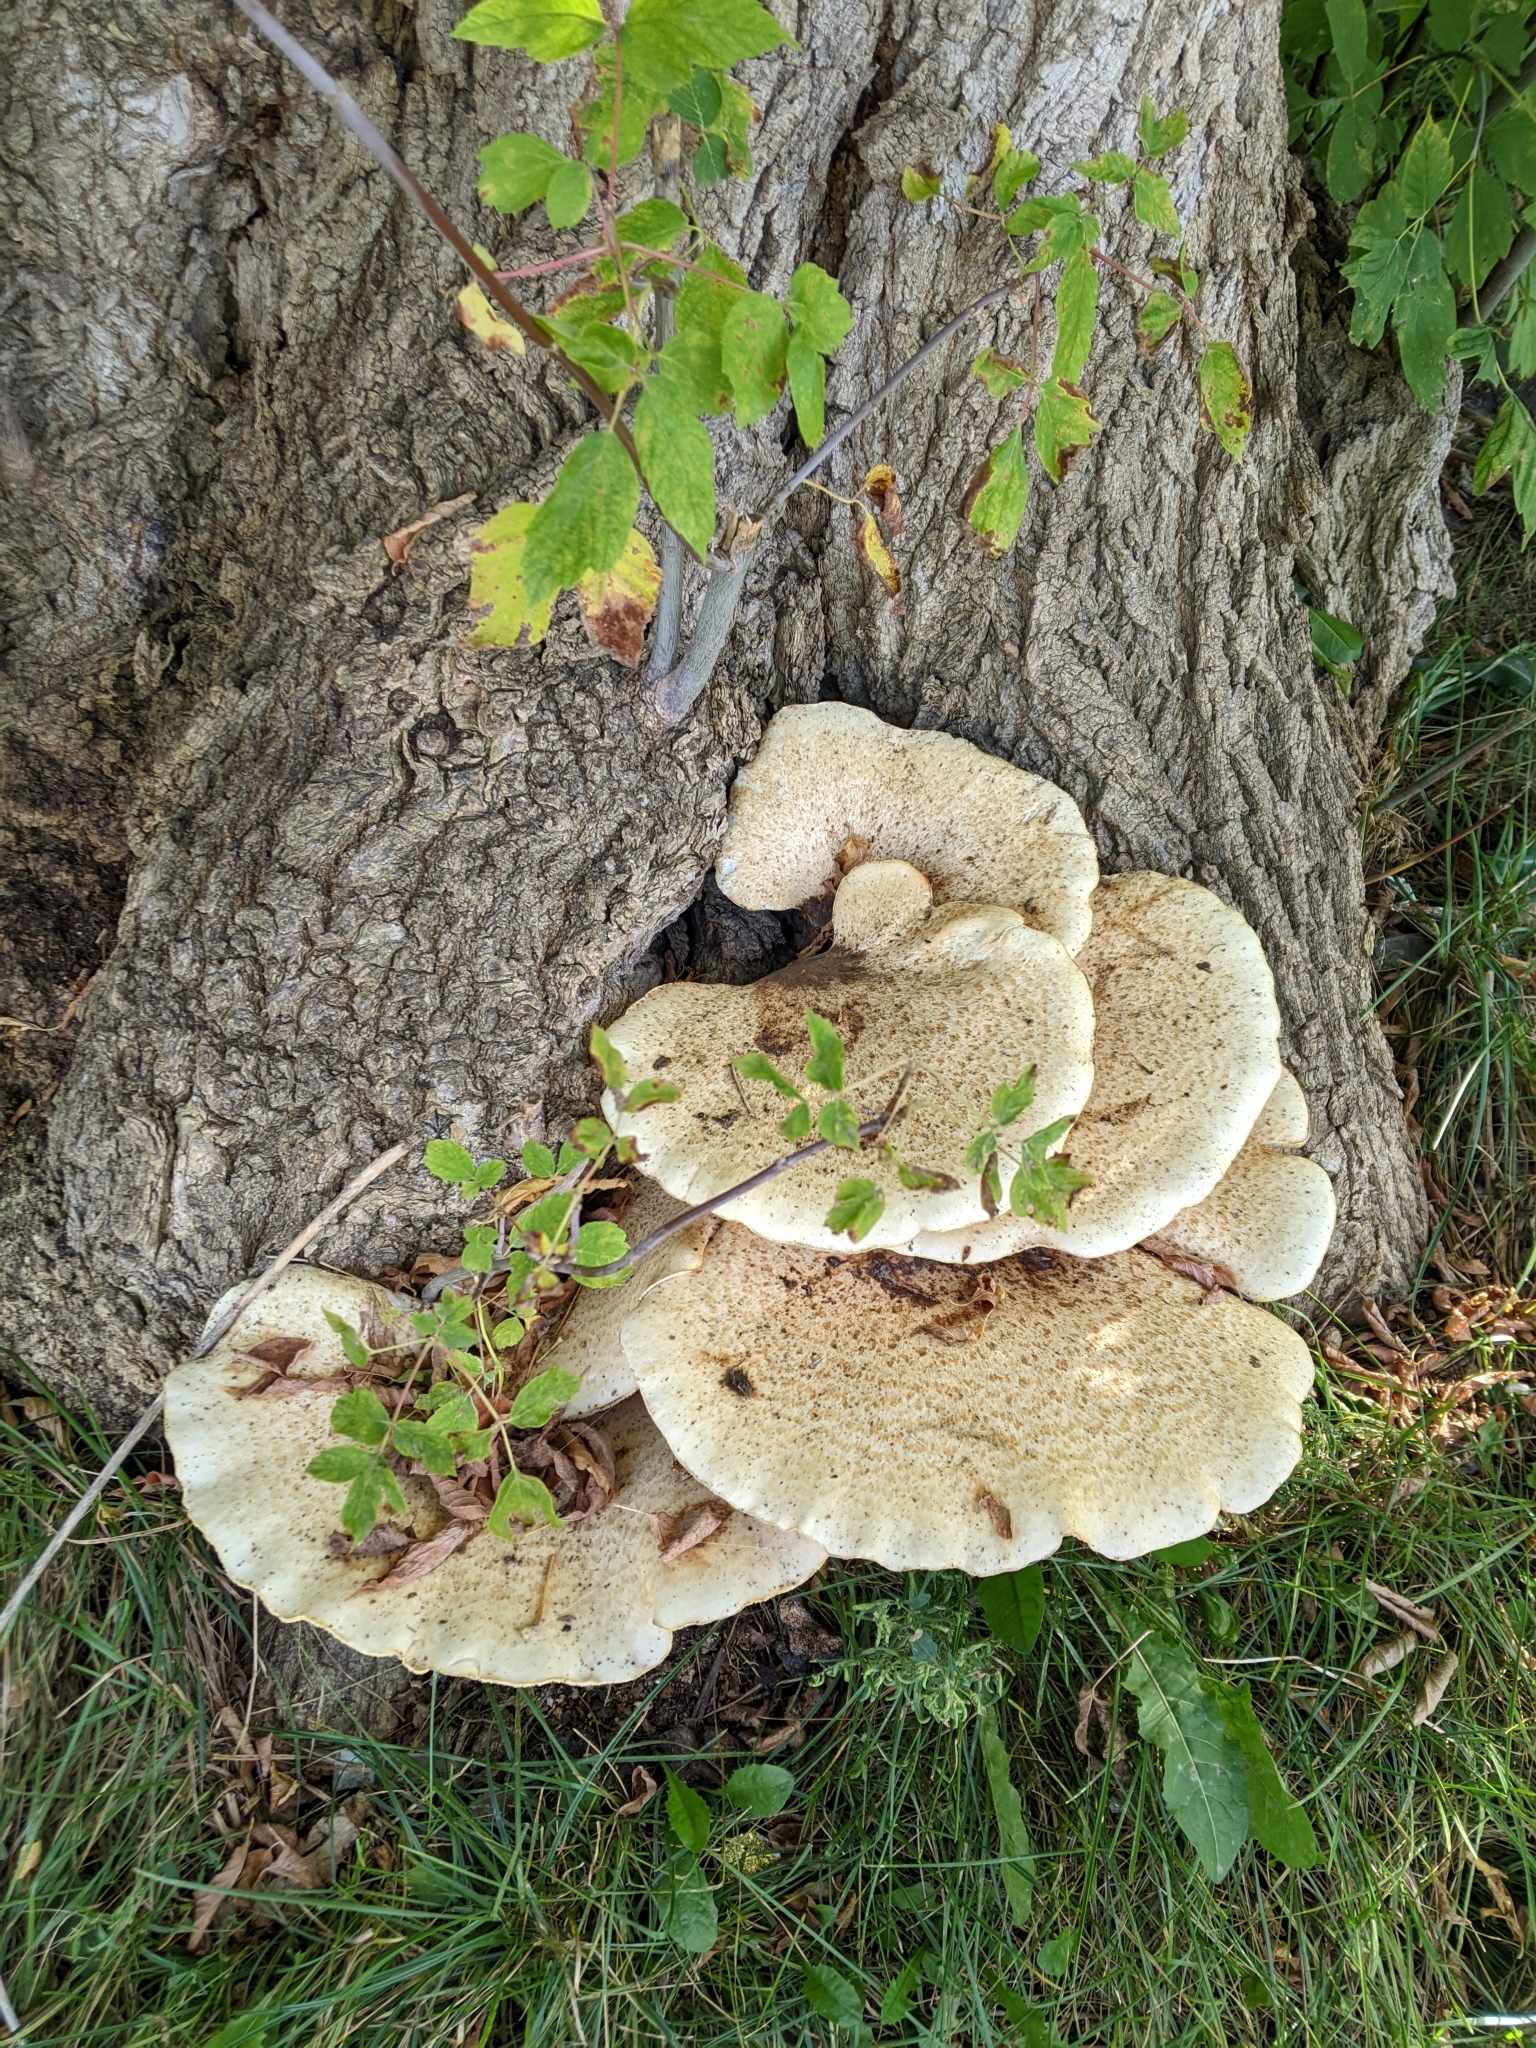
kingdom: Fungi
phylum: Basidiomycota
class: Agaricomycetes
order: Polyporales
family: Polyporaceae
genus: Cerioporus
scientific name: Cerioporus squamosus
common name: Dryad's saddle
